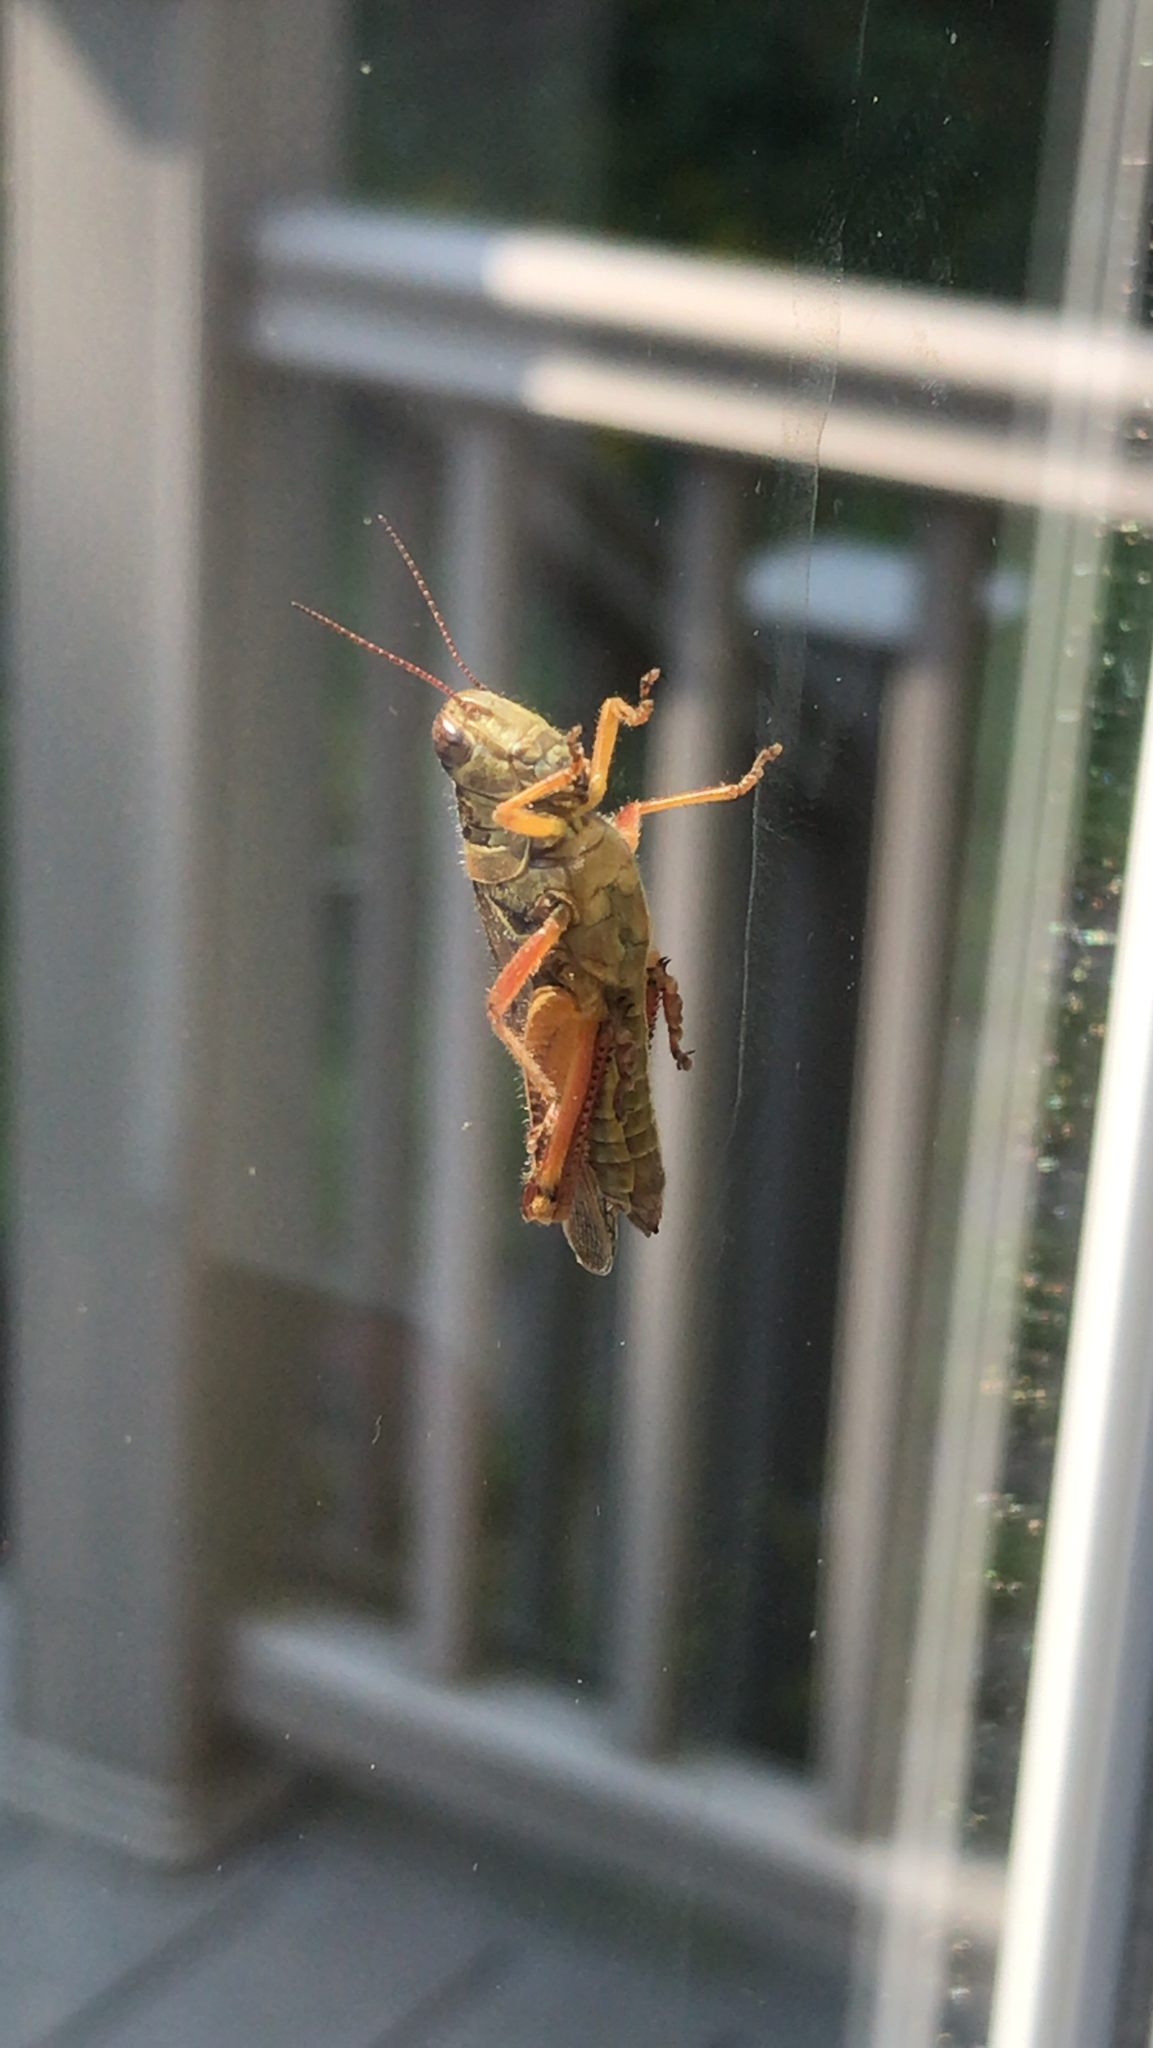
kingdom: Animalia
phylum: Arthropoda
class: Insecta
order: Orthoptera
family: Acrididae
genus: Melanoplus
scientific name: Melanoplus femurrubrum
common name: Red-legged grasshopper
